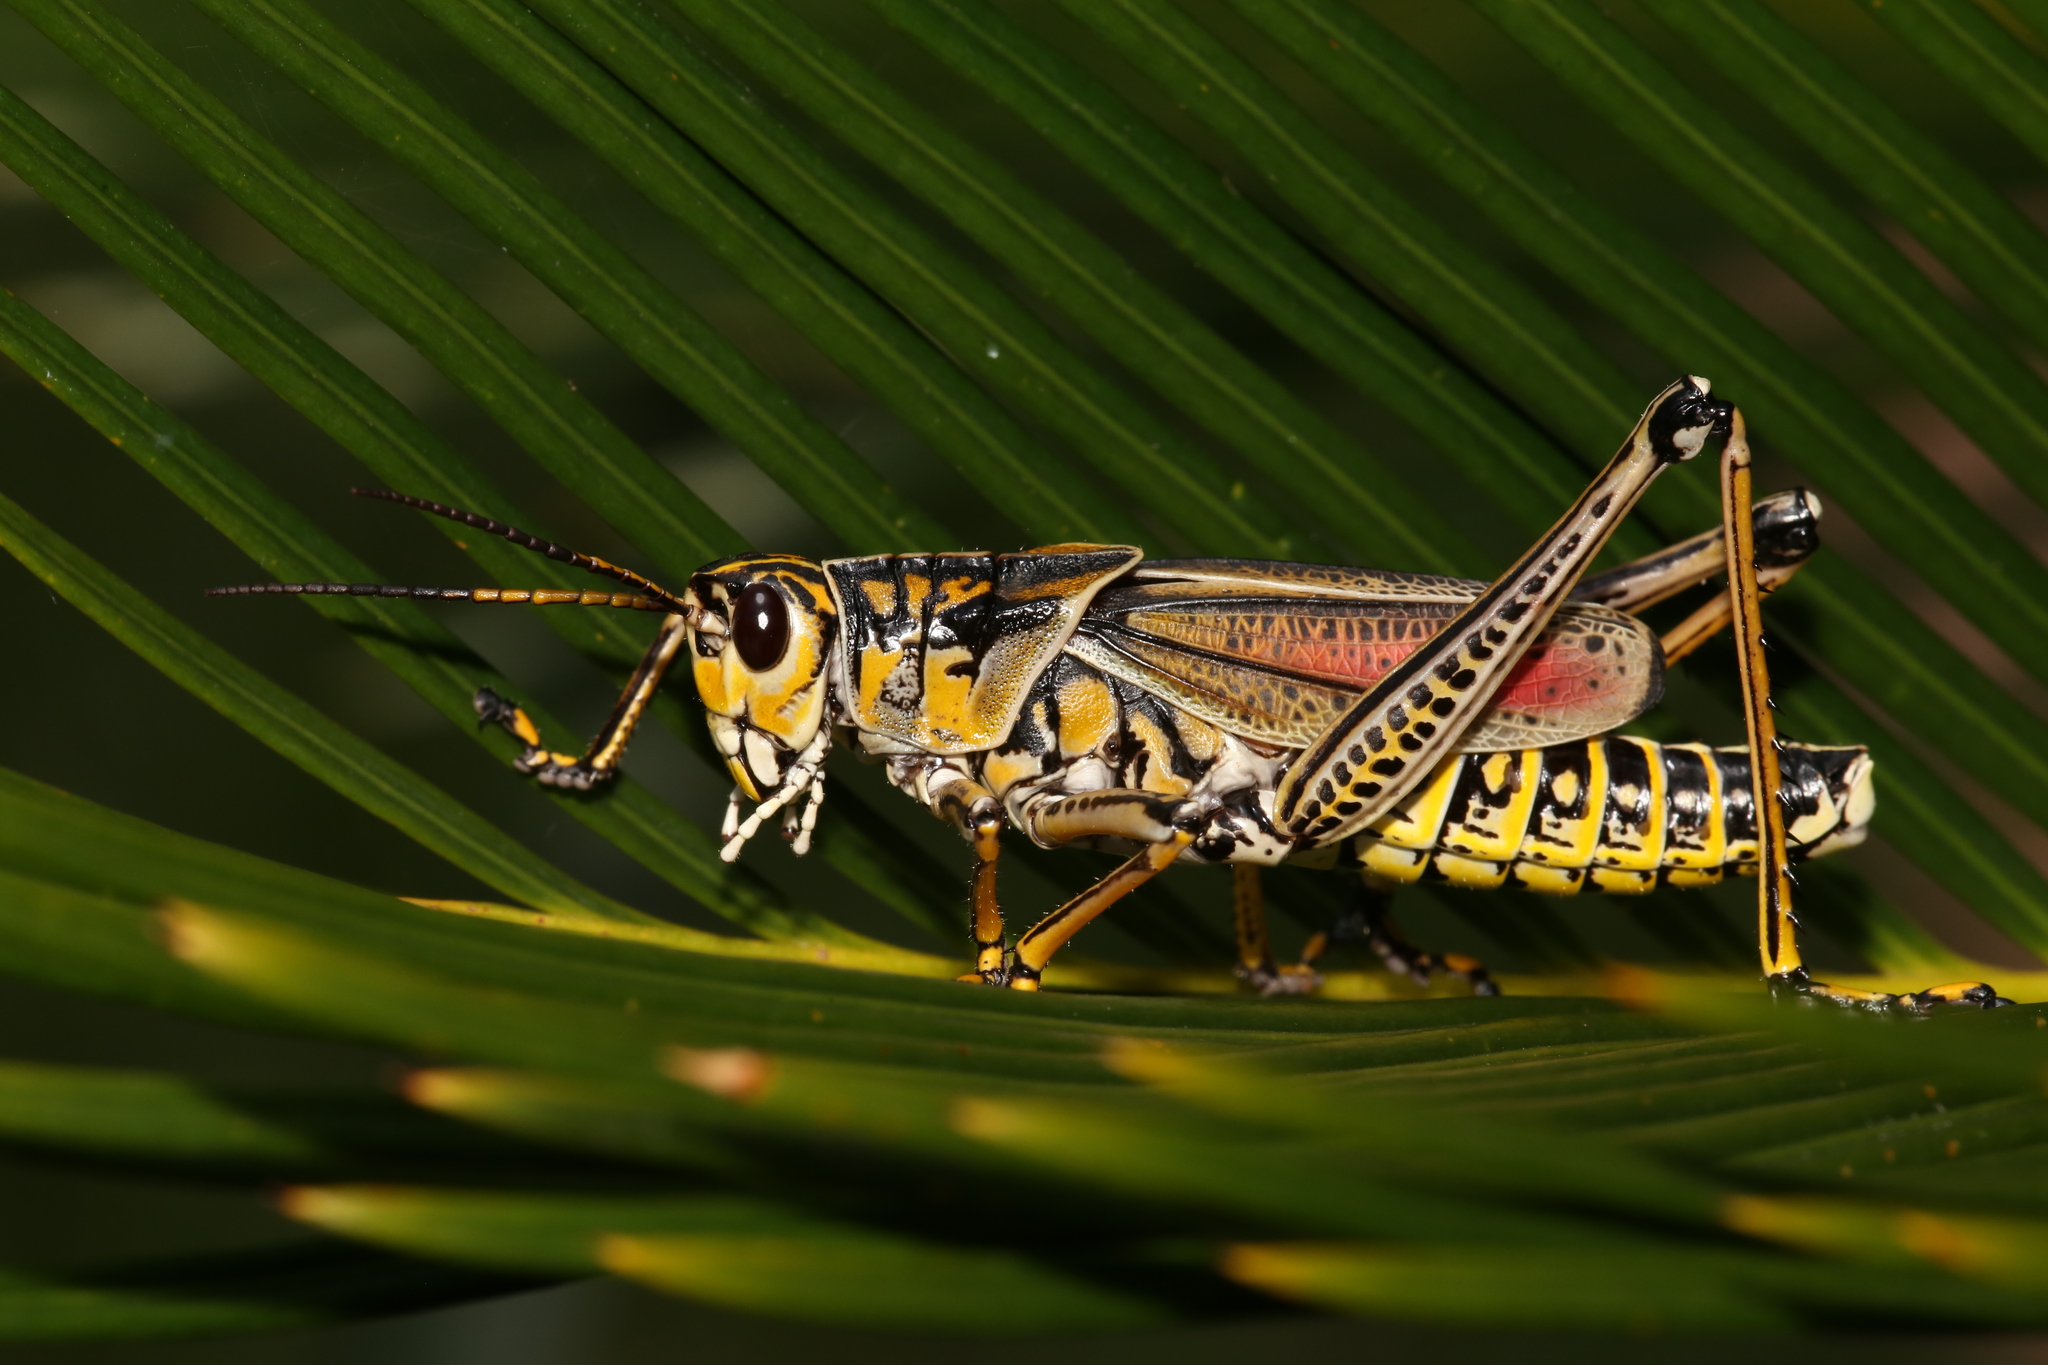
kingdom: Animalia
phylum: Arthropoda
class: Insecta
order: Orthoptera
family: Romaleidae
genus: Romalea
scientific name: Romalea microptera
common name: Eastern lubber grasshopper
